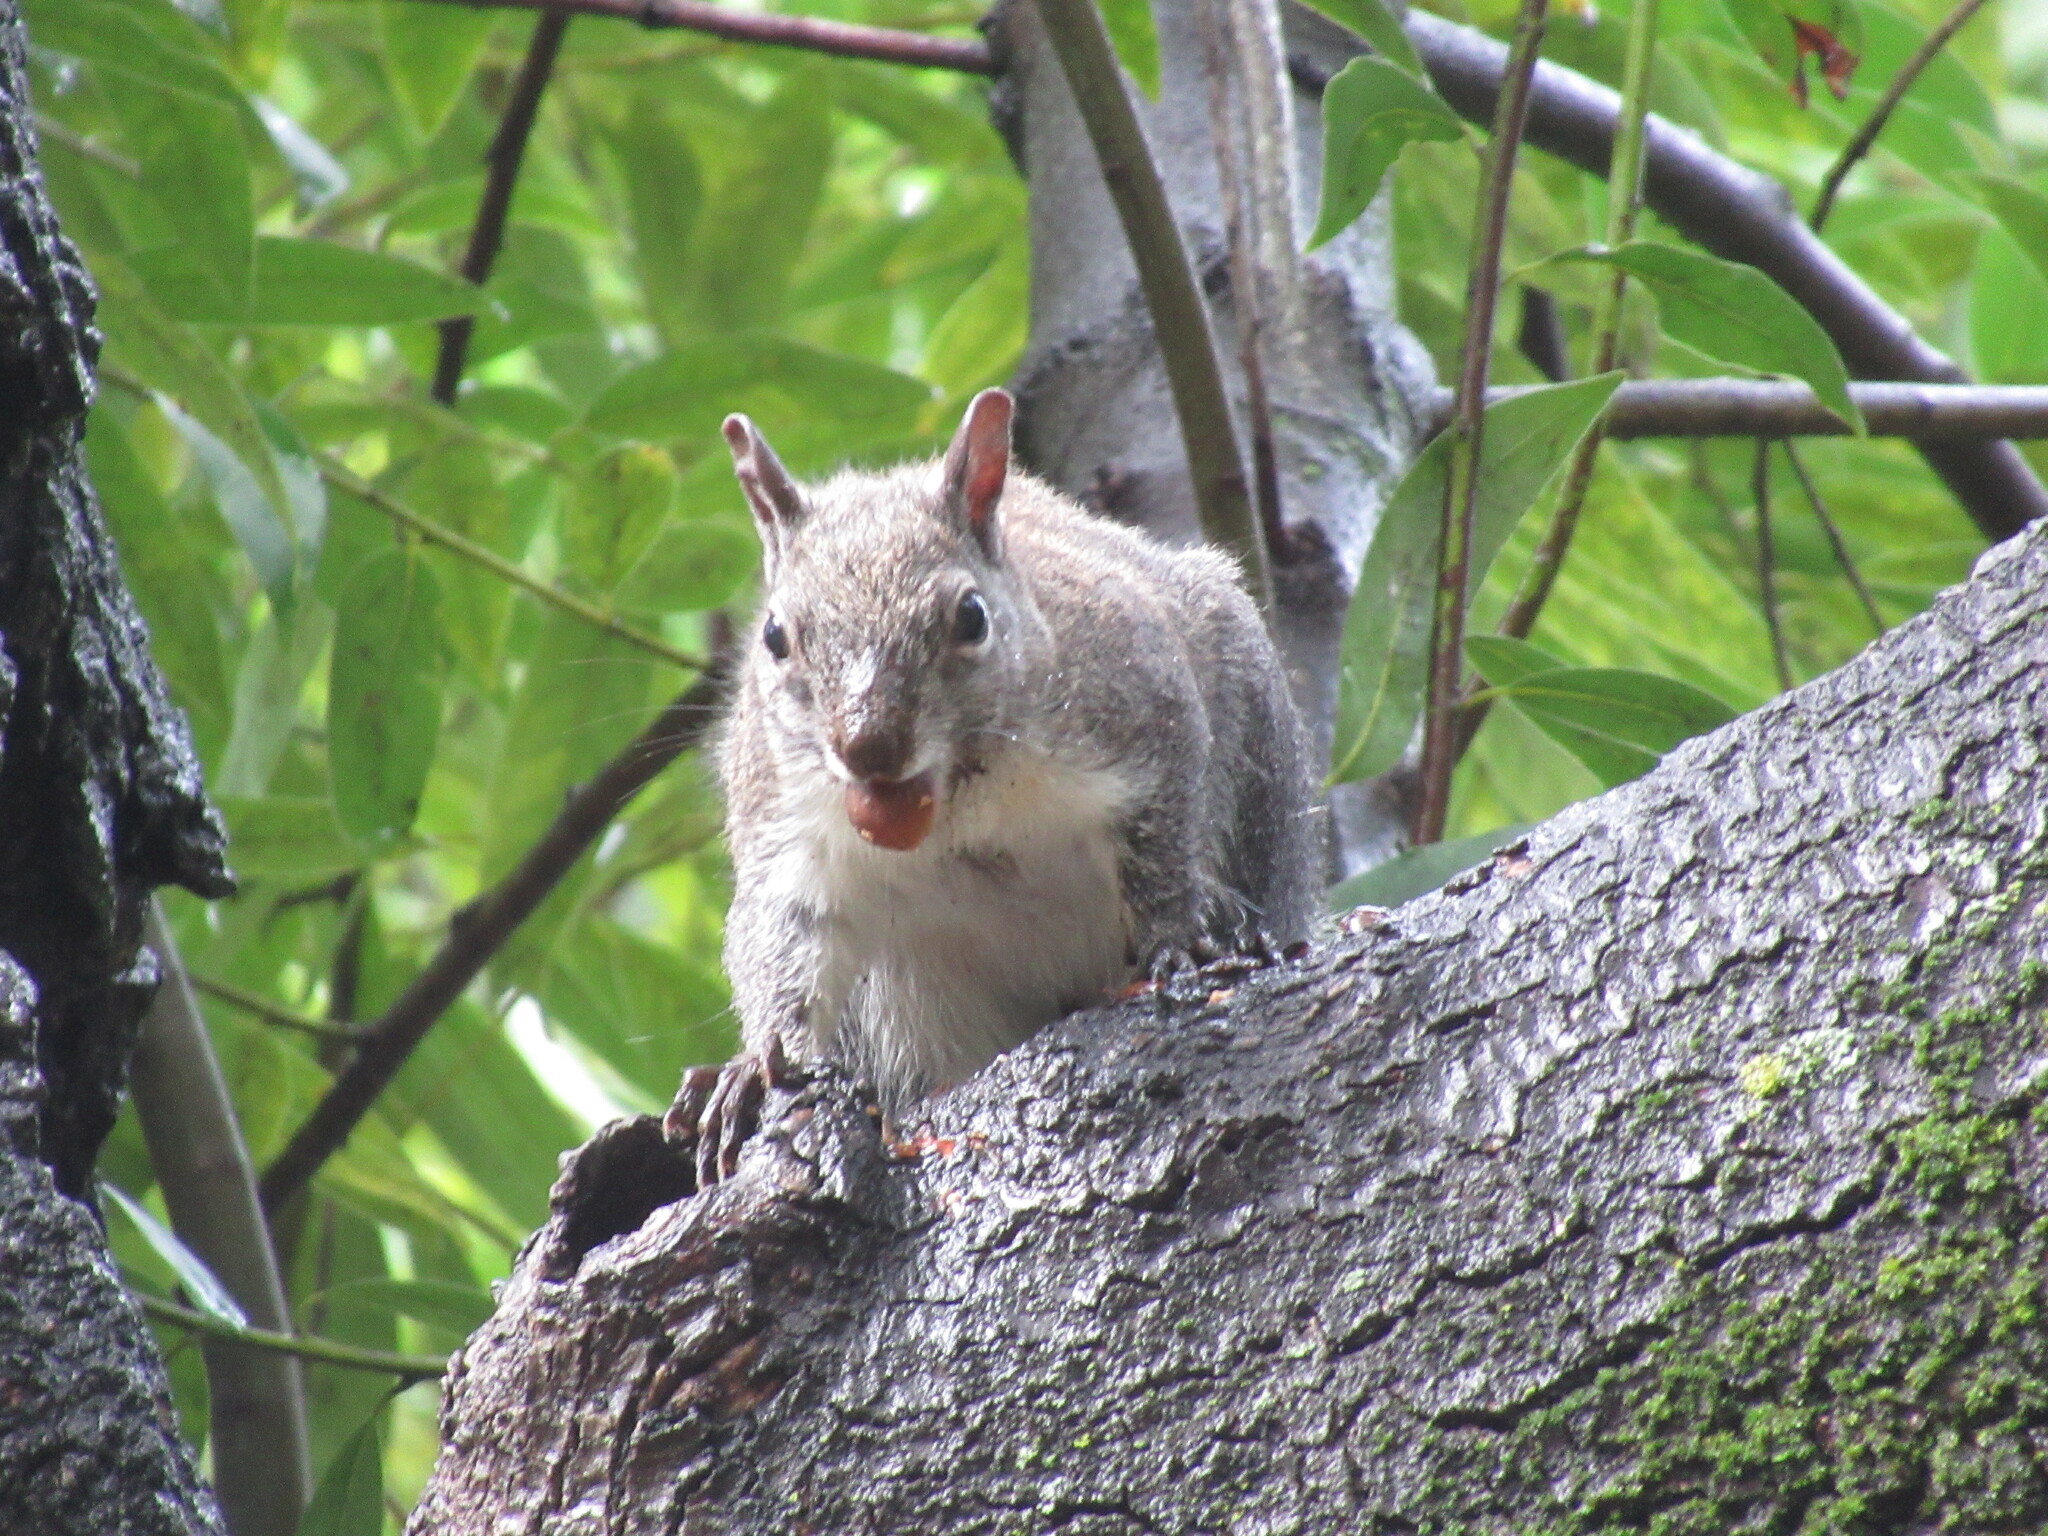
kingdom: Animalia
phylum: Chordata
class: Mammalia
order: Rodentia
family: Sciuridae
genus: Sciurus
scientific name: Sciurus griseus
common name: Western gray squirrel
